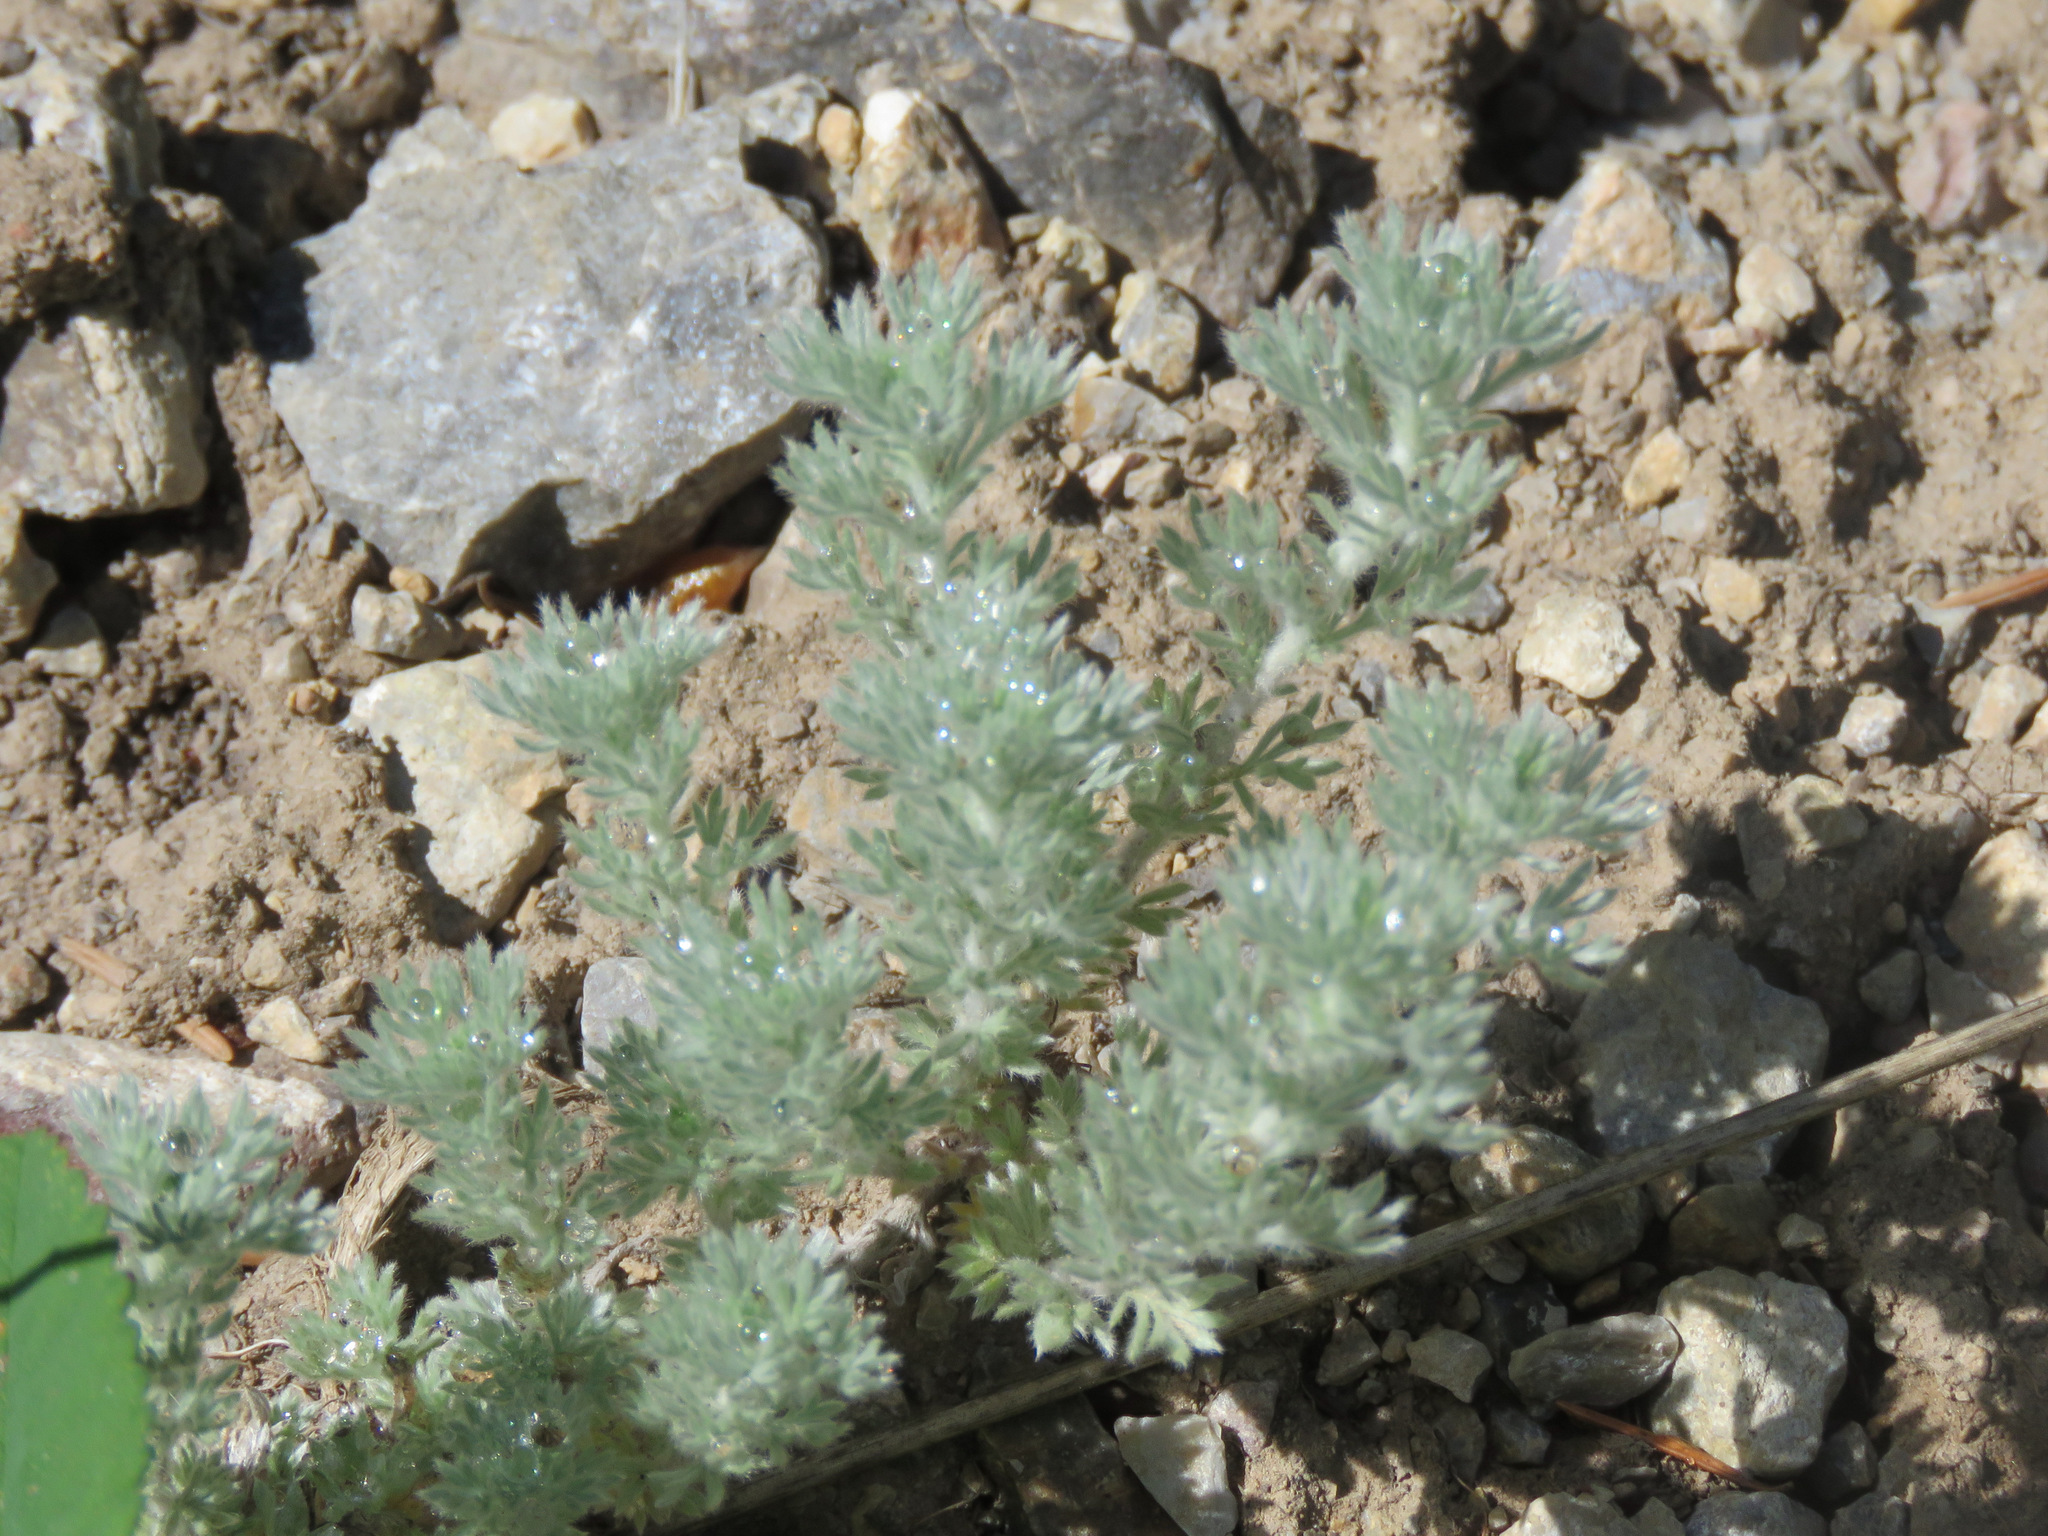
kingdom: Plantae
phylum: Tracheophyta
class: Magnoliopsida
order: Asterales
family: Asteraceae
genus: Artemisia
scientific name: Artemisia frigida
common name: Prairie sagewort
